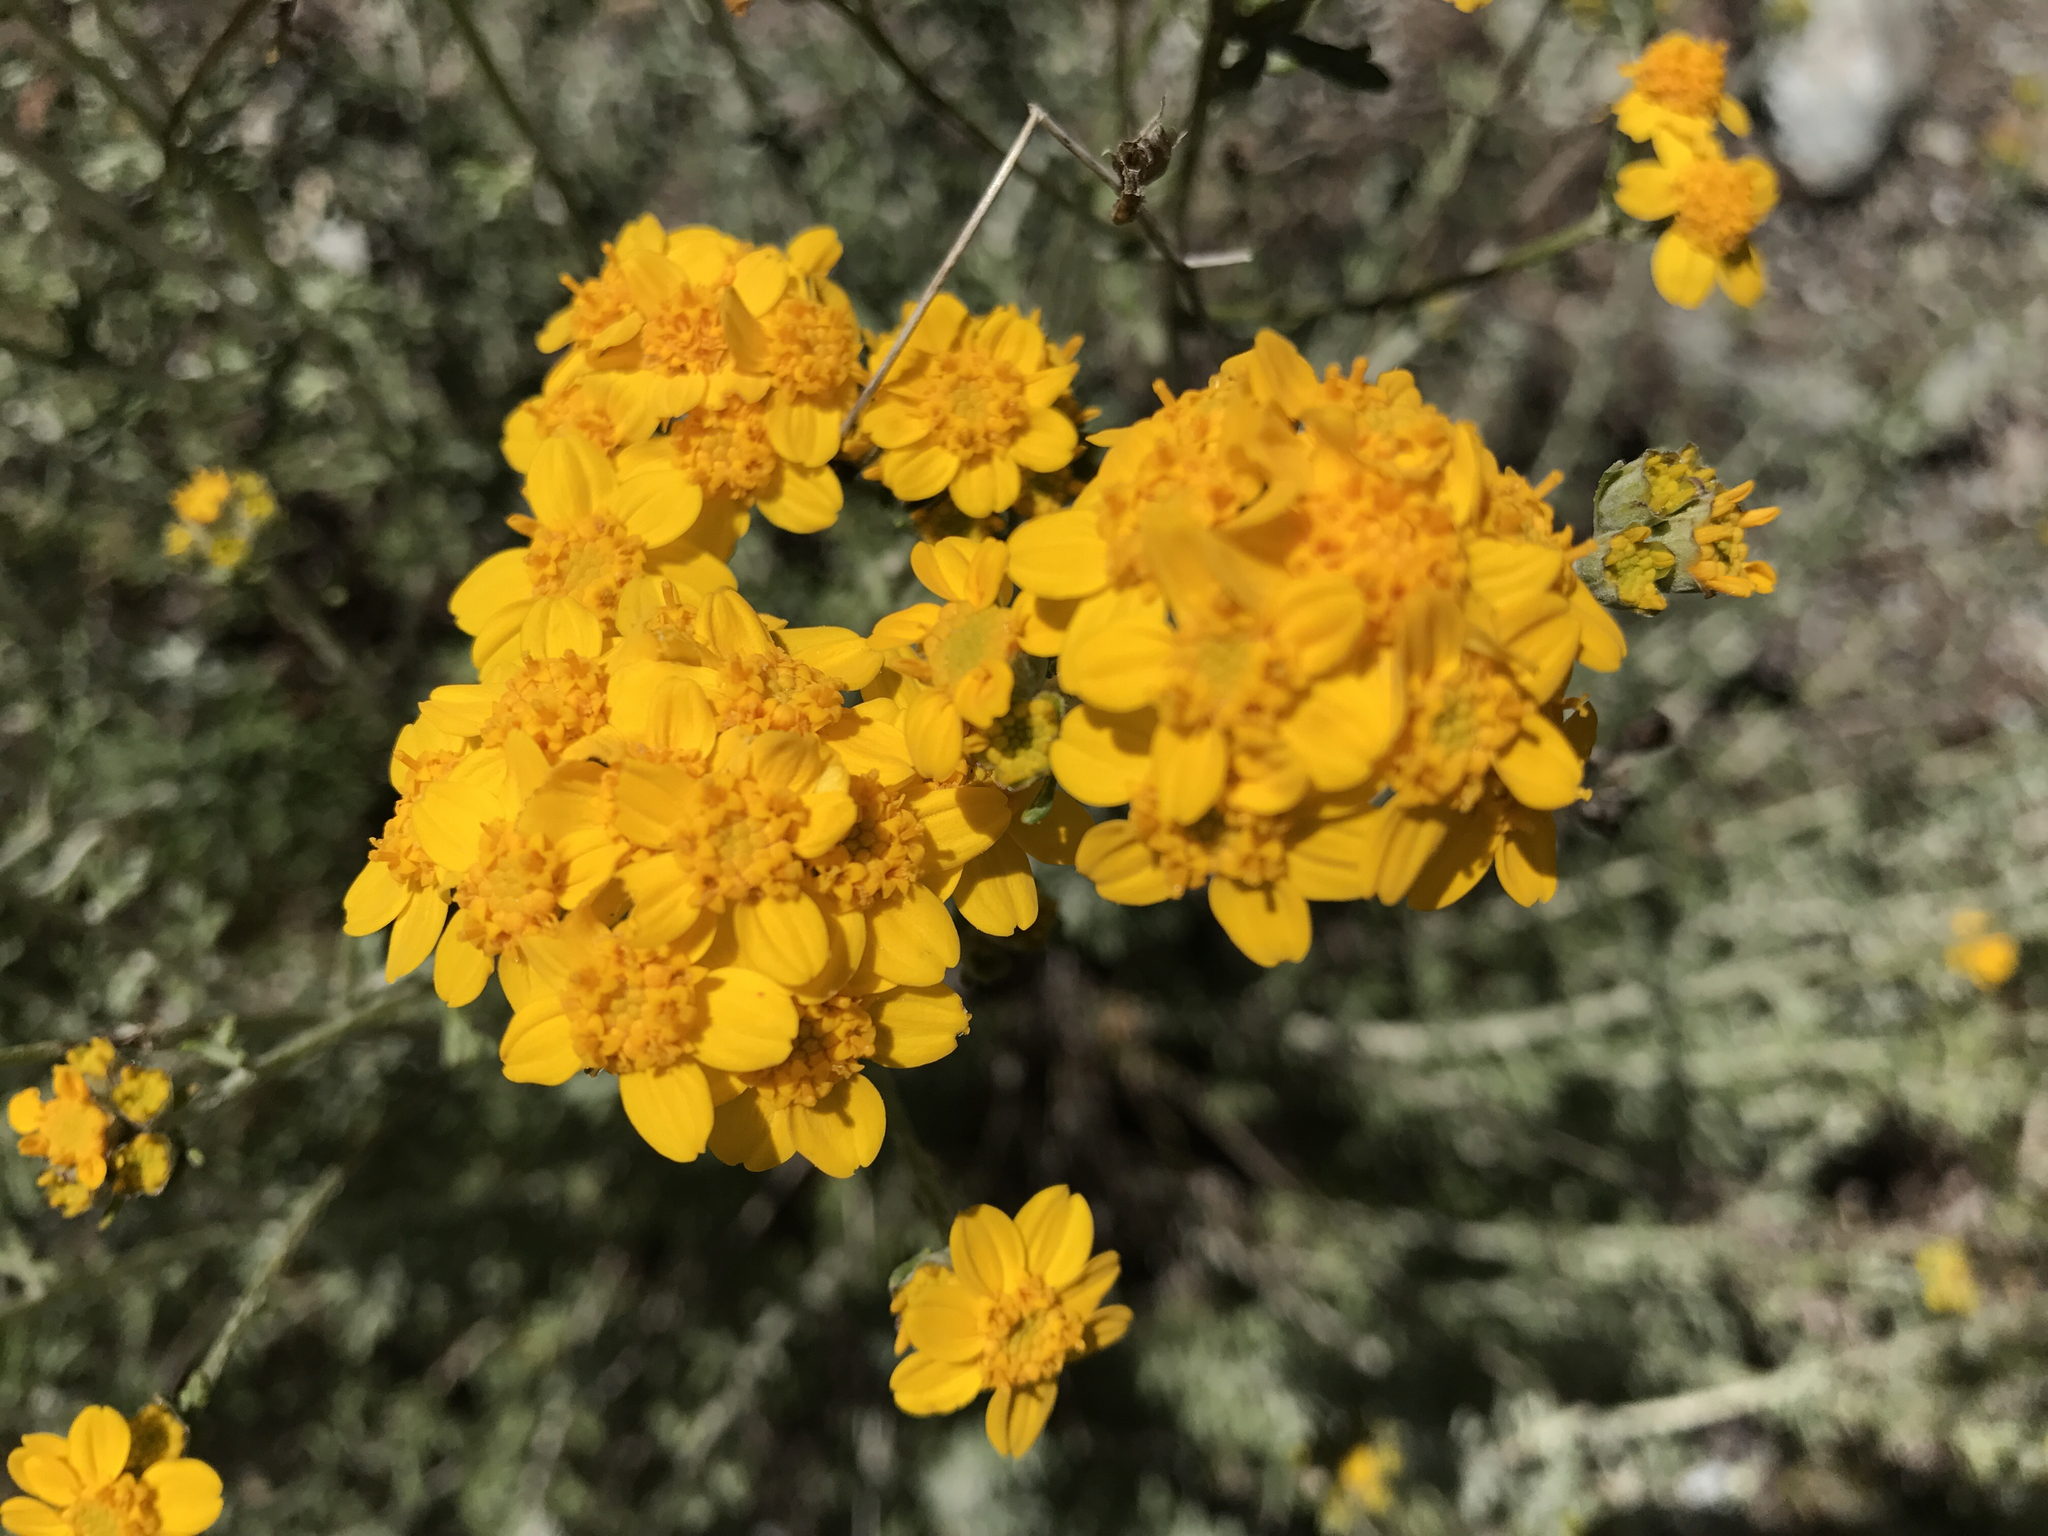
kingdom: Plantae
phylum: Tracheophyta
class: Magnoliopsida
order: Asterales
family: Asteraceae
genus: Eriophyllum
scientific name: Eriophyllum confertiflorum
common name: Golden-yarrow
